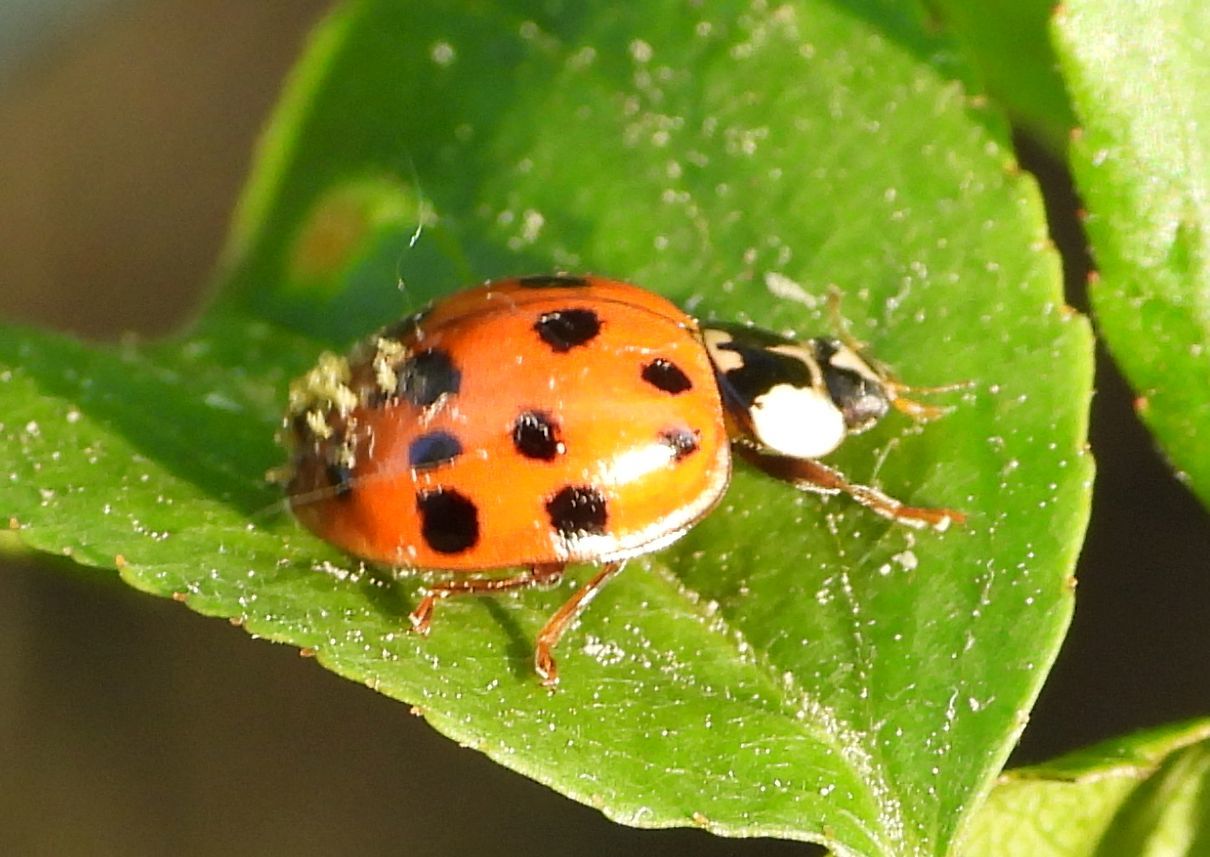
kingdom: Fungi
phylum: Ascomycota
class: Laboulbeniomycetes
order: Laboulbeniales
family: Laboulbeniaceae
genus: Hesperomyces
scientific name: Hesperomyces harmoniae
